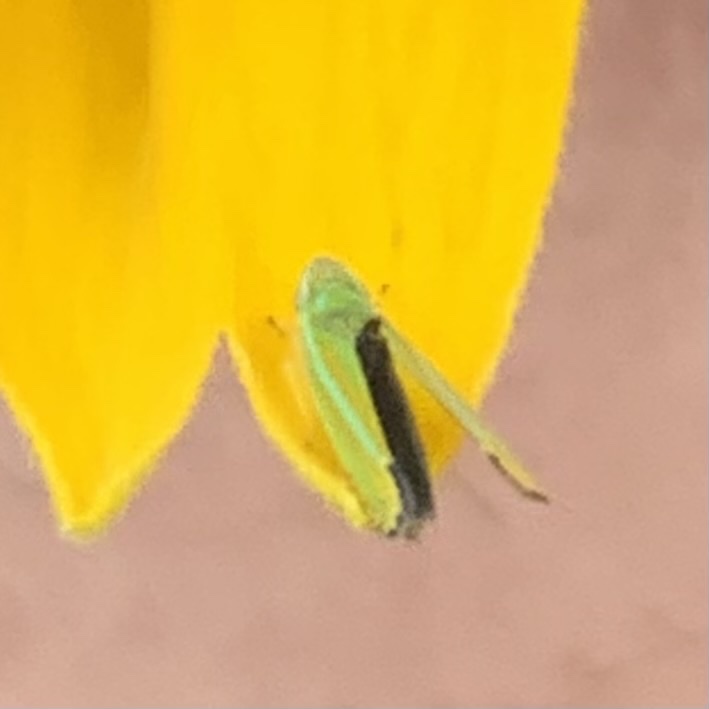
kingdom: Animalia
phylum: Arthropoda
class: Insecta
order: Hemiptera
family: Cicadellidae
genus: Graphocephala
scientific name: Graphocephala versuta
